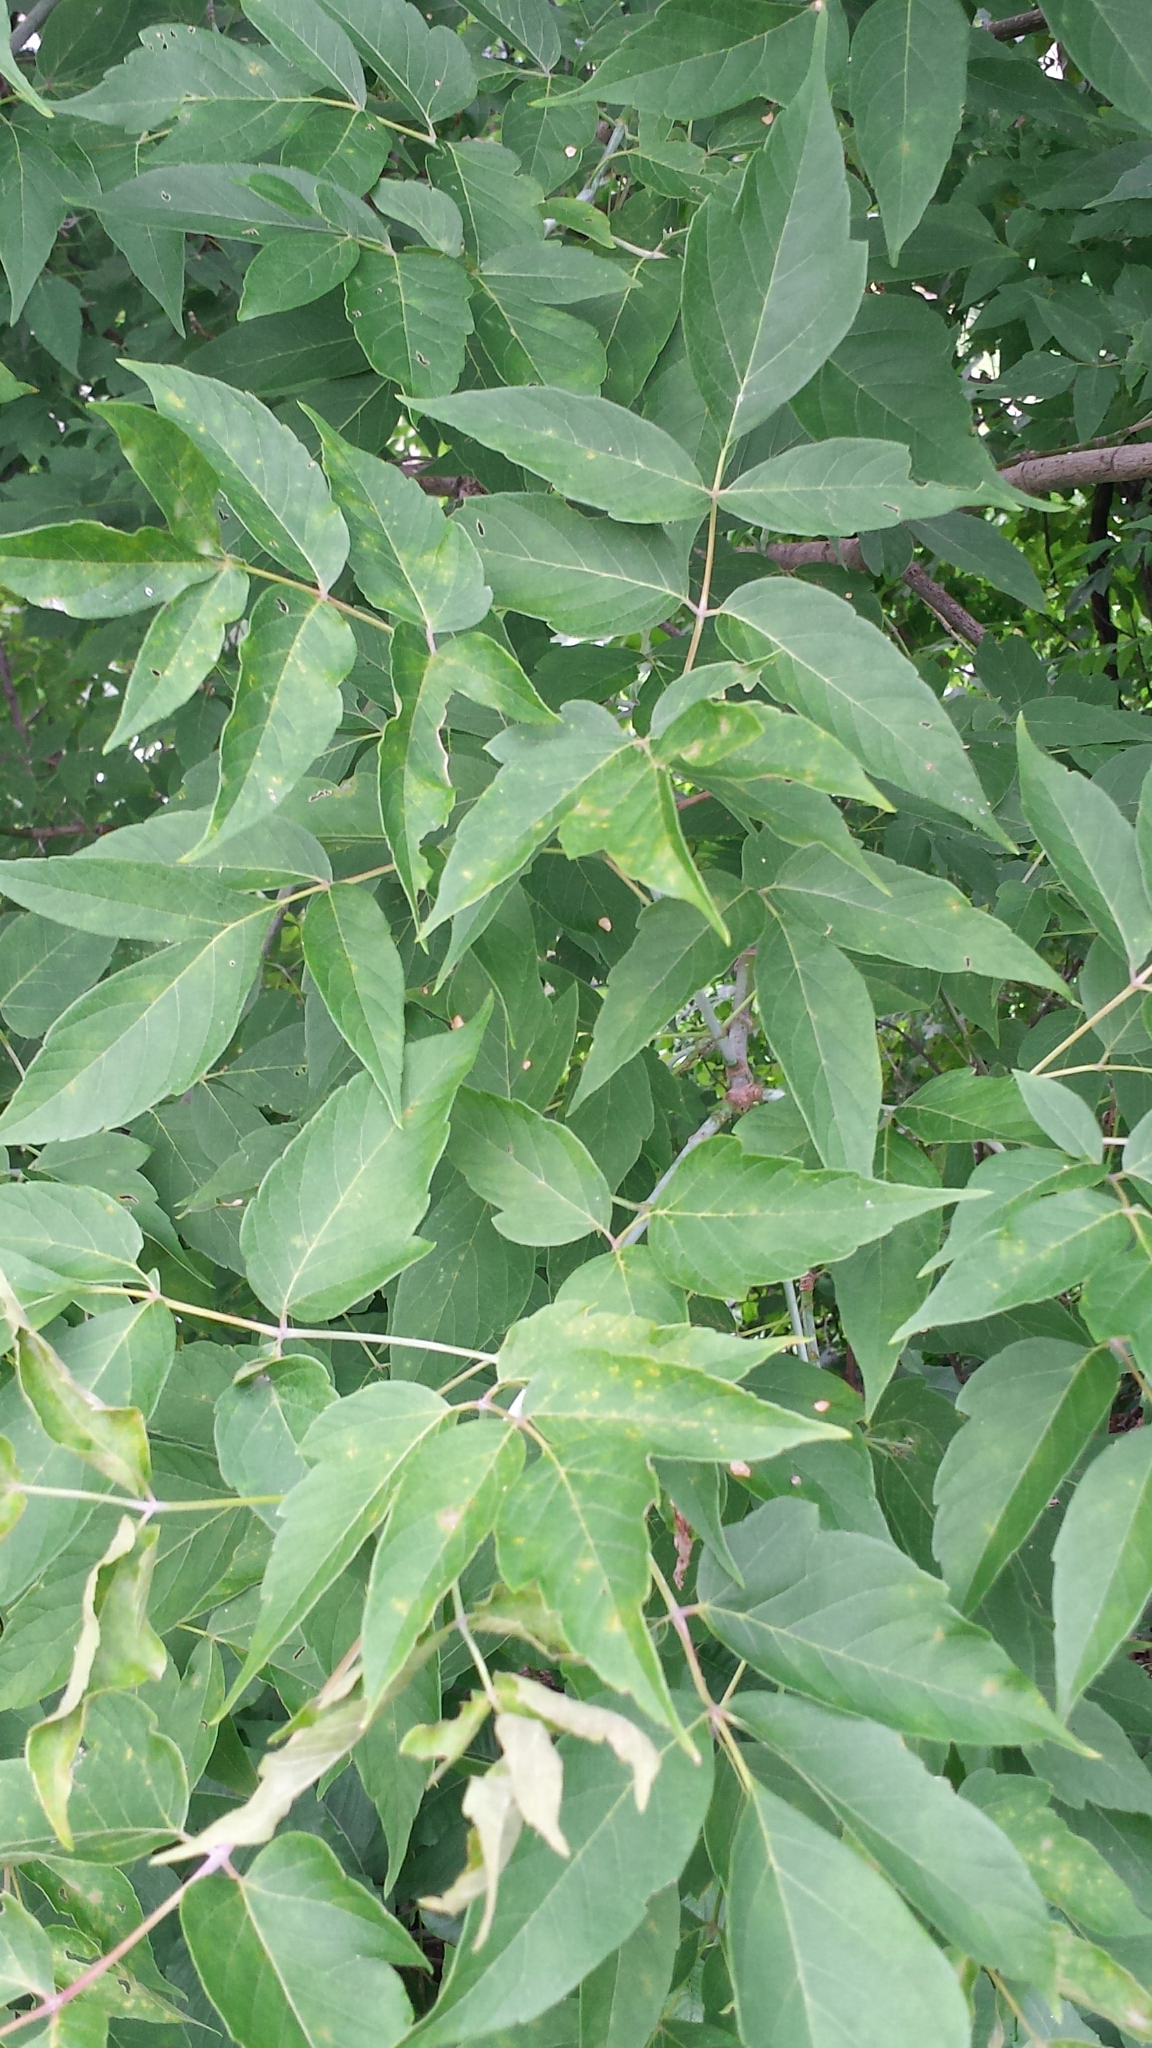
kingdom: Plantae
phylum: Tracheophyta
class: Magnoliopsida
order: Sapindales
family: Sapindaceae
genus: Acer
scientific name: Acer negundo
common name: Ashleaf maple
